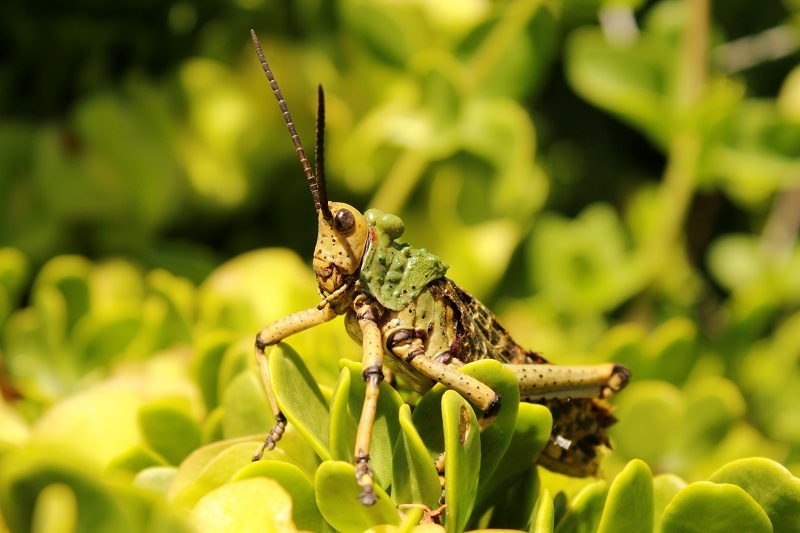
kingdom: Animalia
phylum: Arthropoda
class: Insecta
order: Orthoptera
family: Pyrgomorphidae
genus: Phymateus
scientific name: Phymateus leprosus
